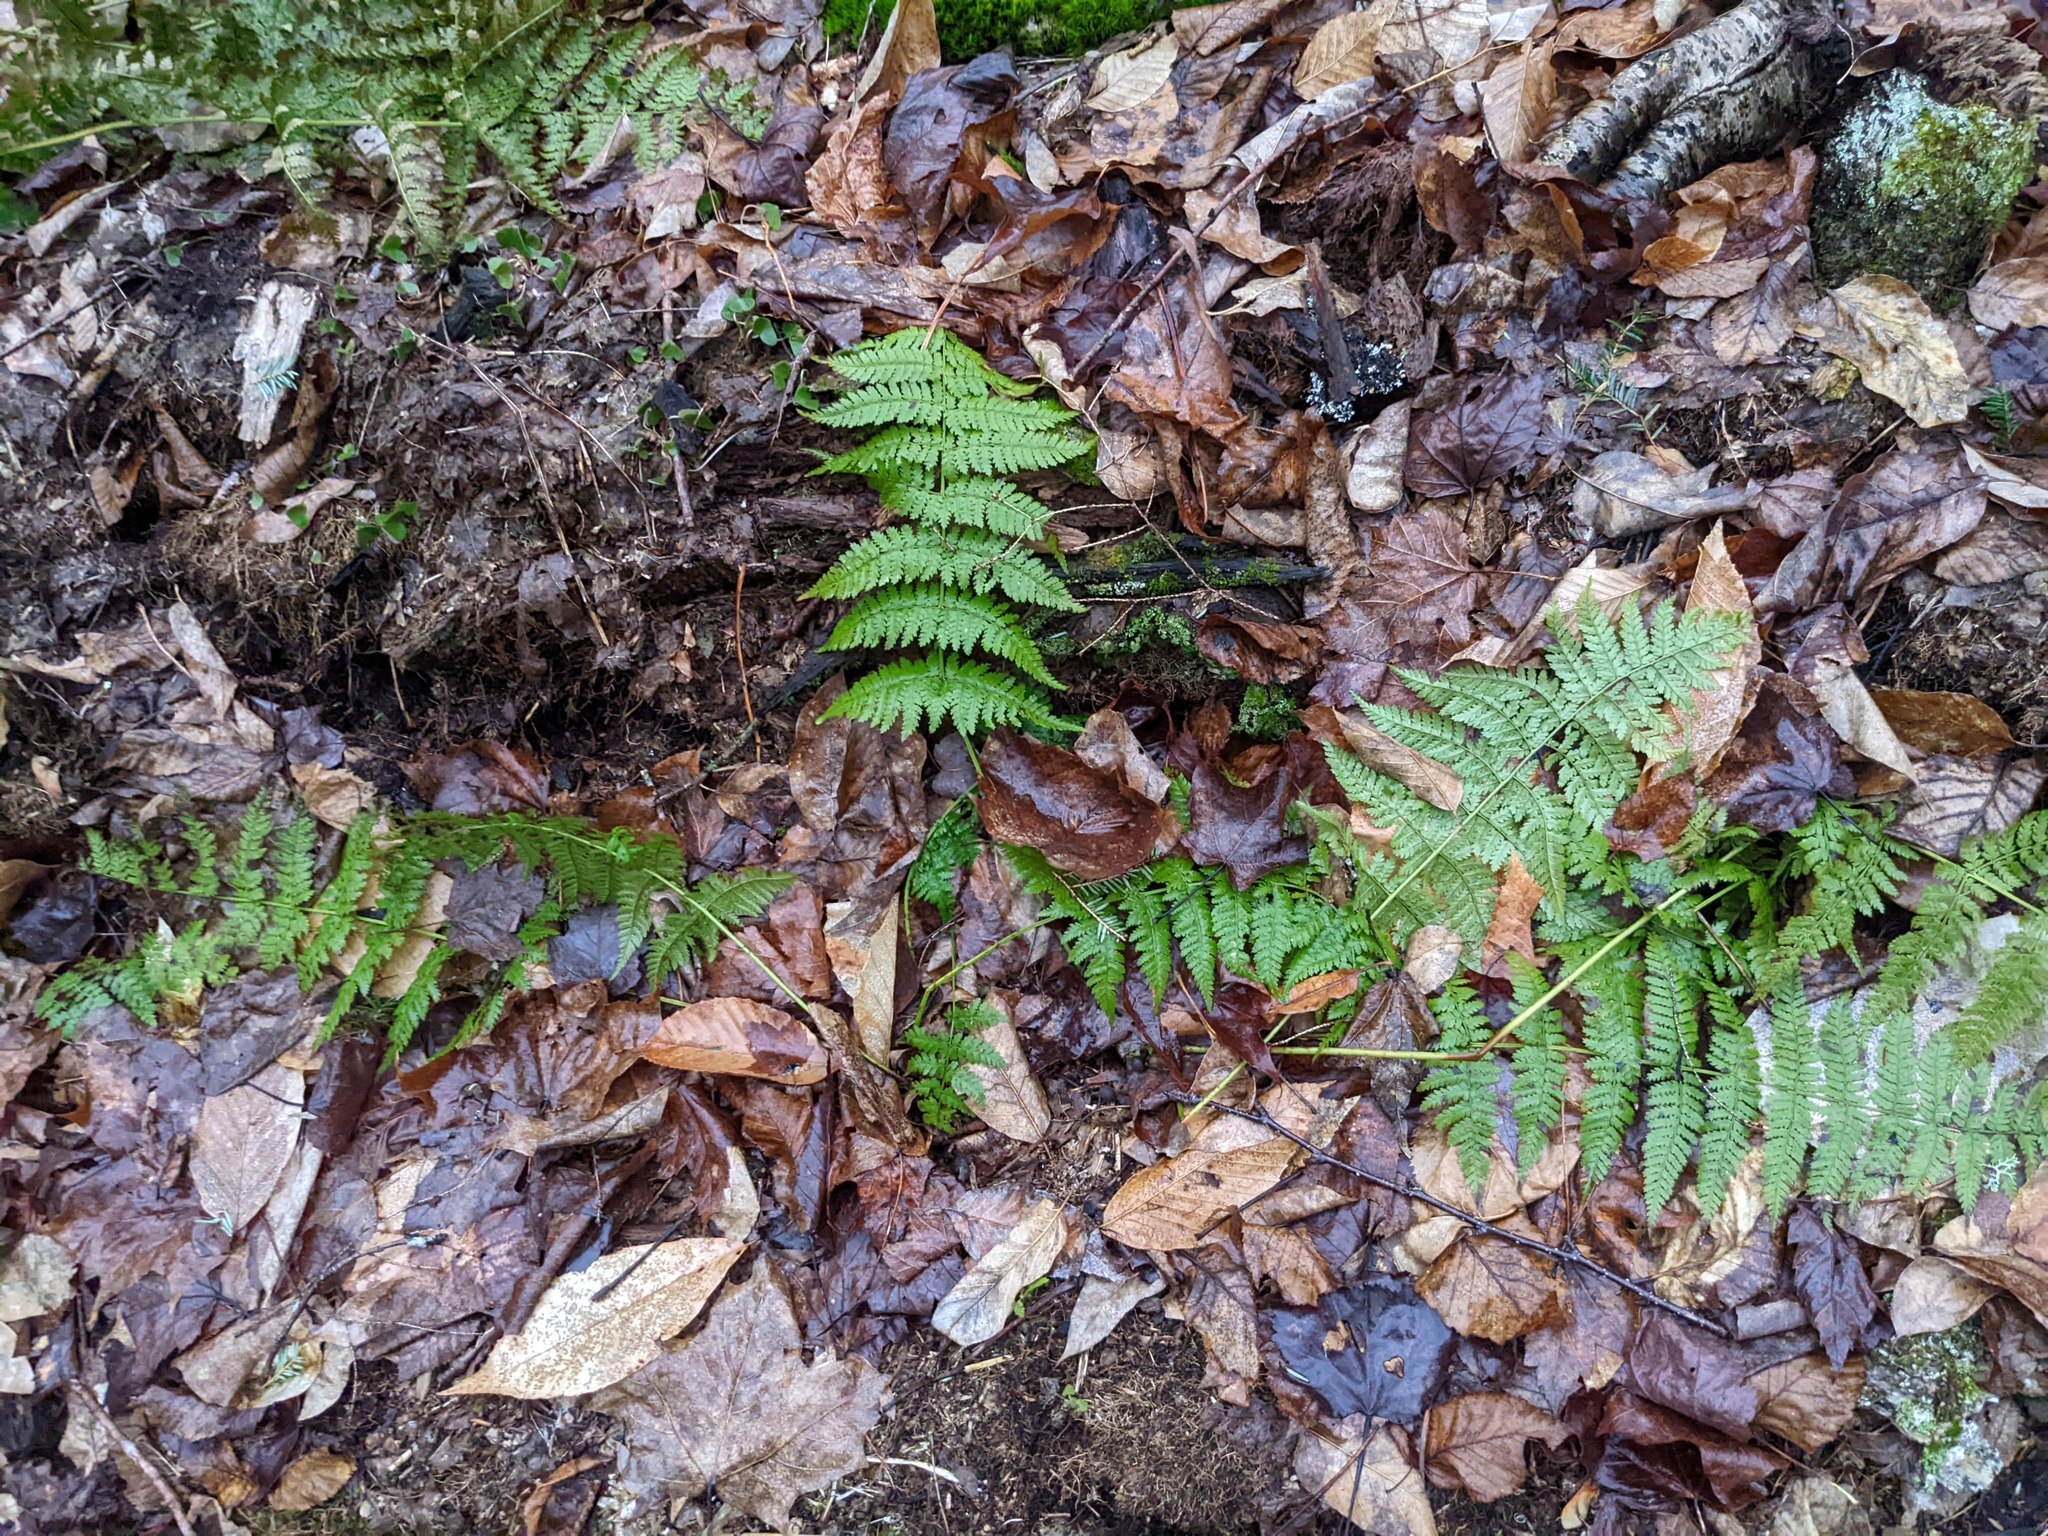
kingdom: Plantae
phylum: Tracheophyta
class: Polypodiopsida
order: Polypodiales
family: Dryopteridaceae
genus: Dryopteris
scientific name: Dryopteris intermedia
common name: Evergreen wood fern
